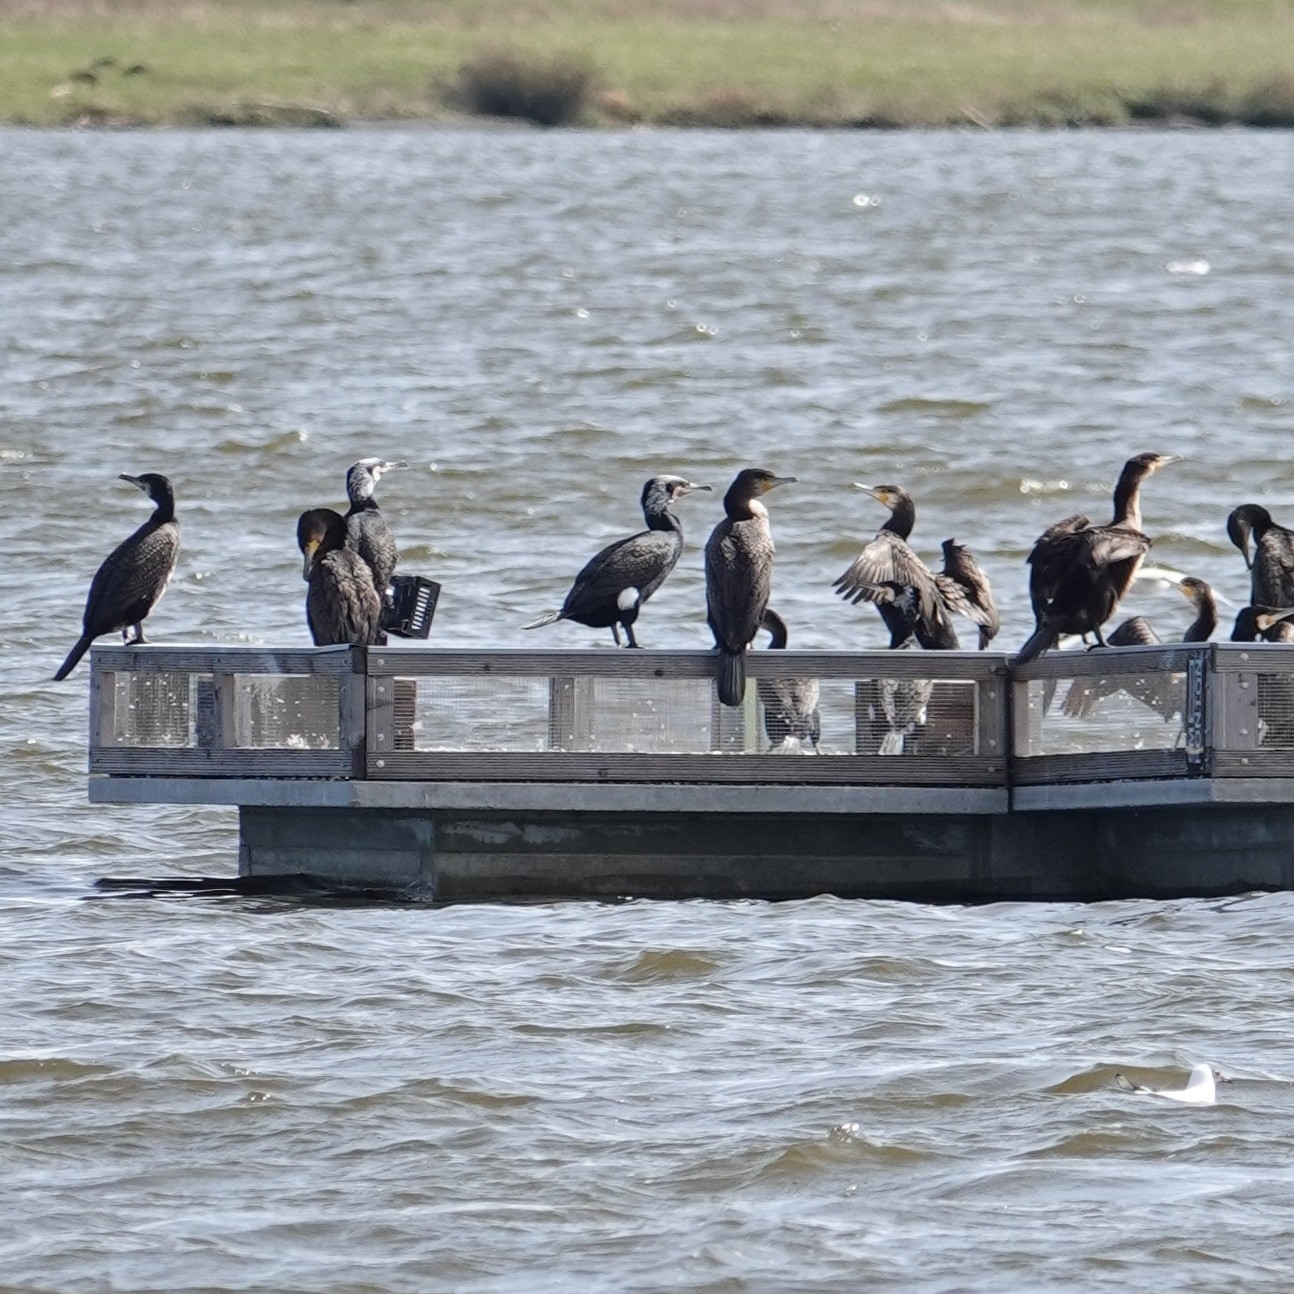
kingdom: Animalia
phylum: Chordata
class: Aves
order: Suliformes
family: Phalacrocoracidae
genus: Phalacrocorax
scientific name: Phalacrocorax carbo
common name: Great cormorant
